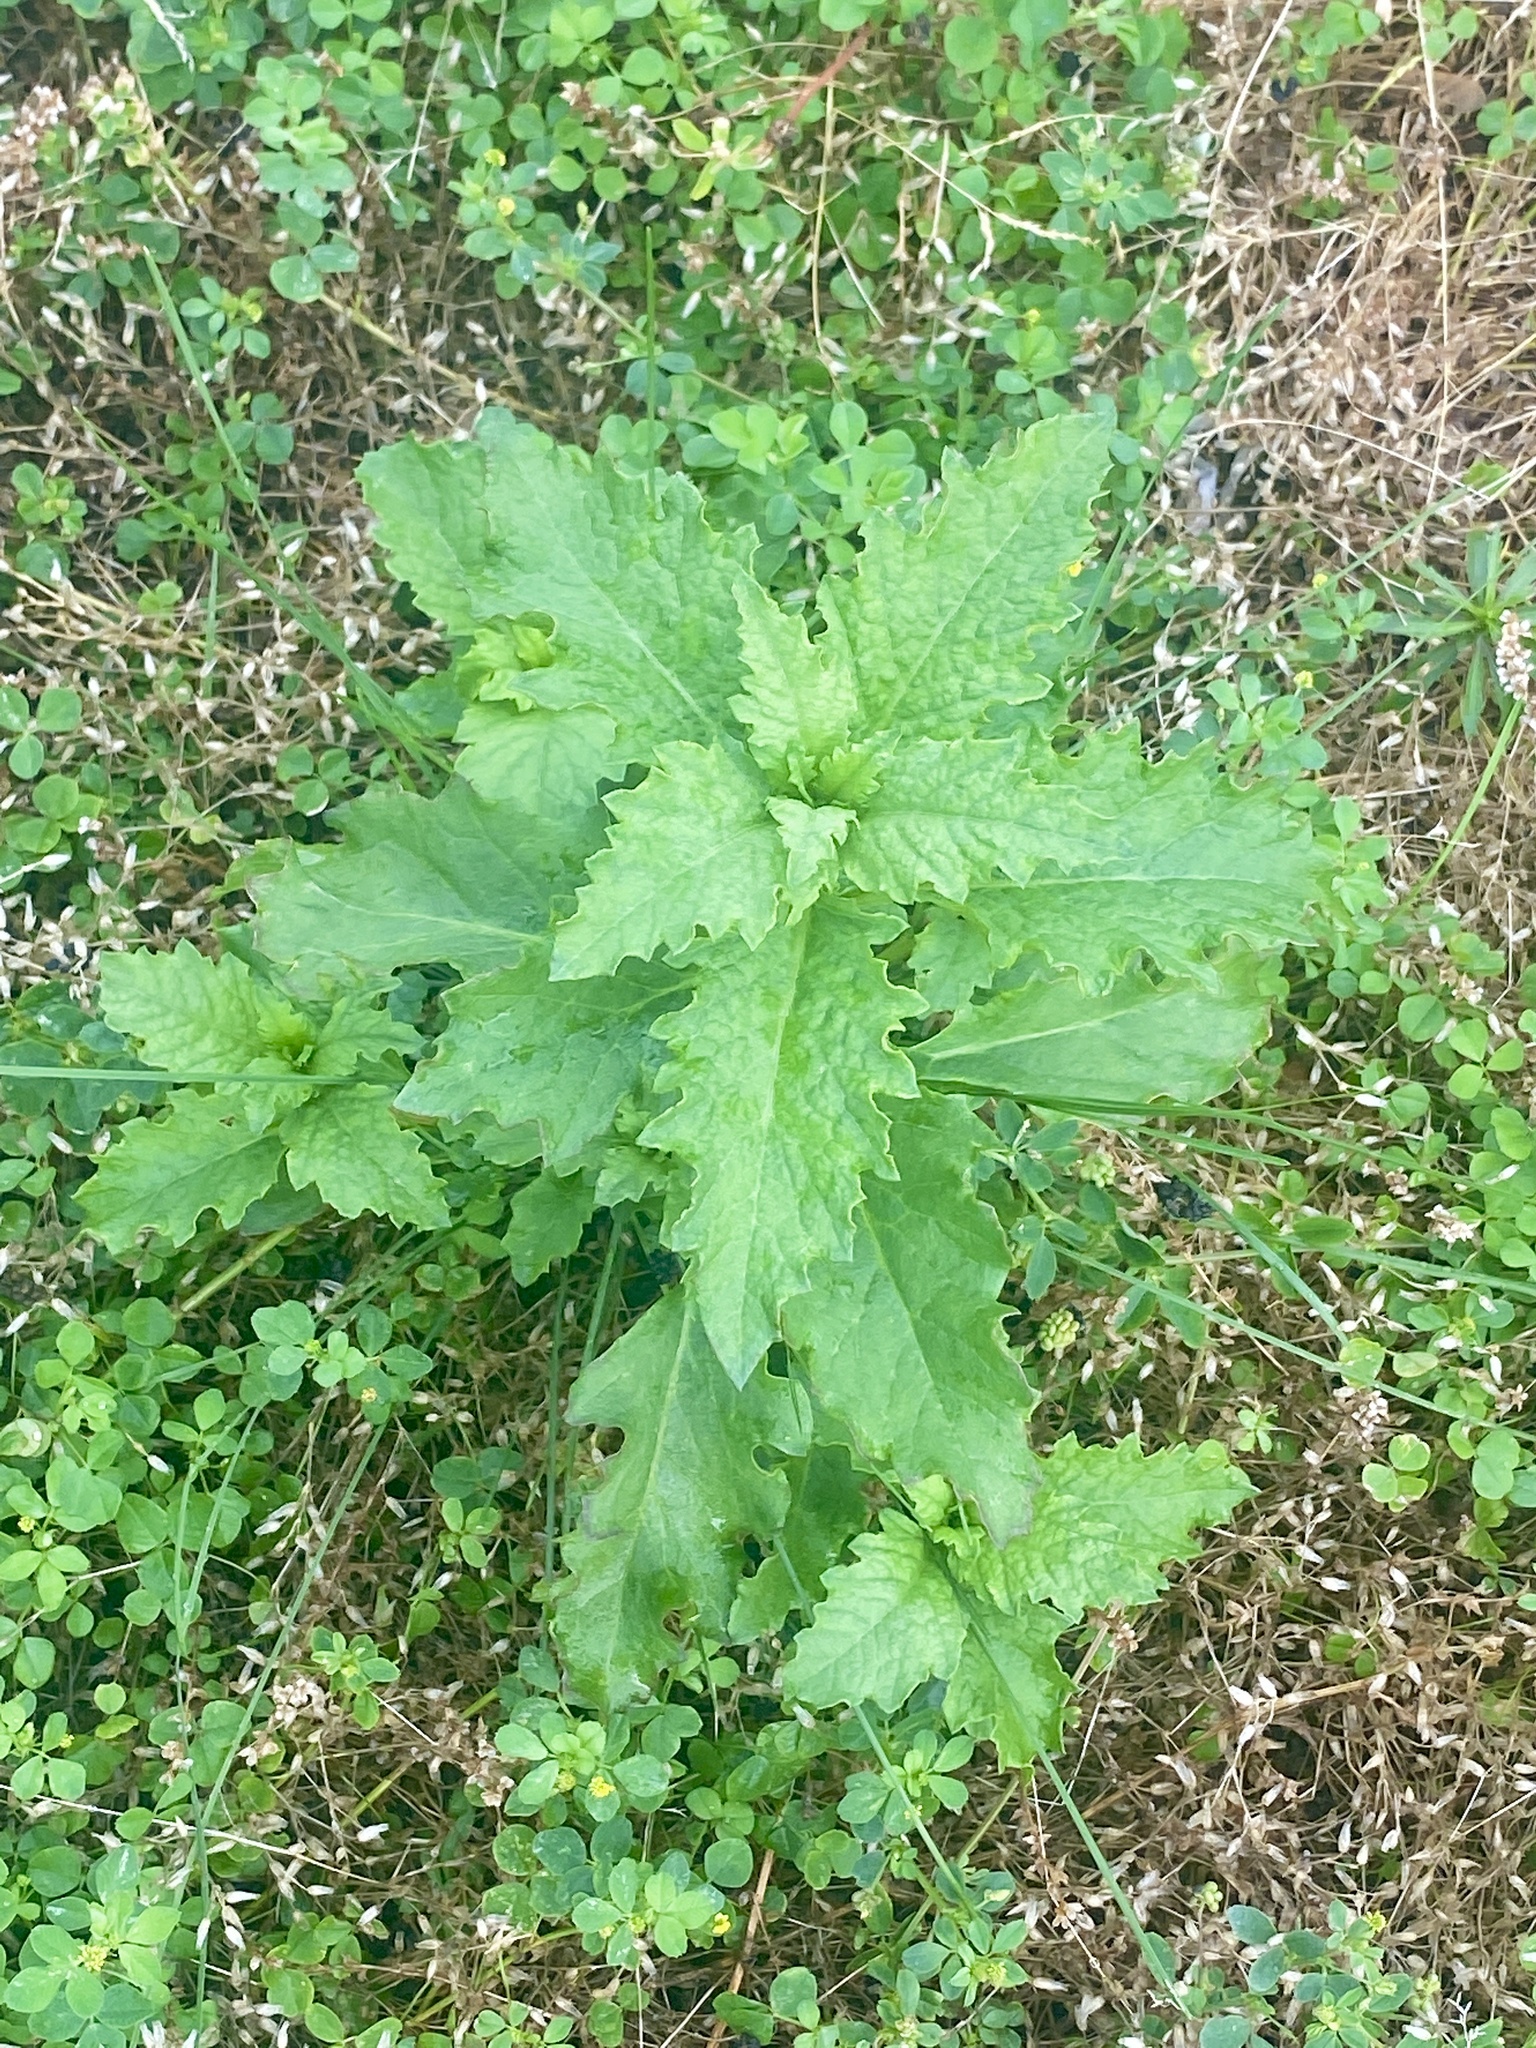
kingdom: Plantae
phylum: Tracheophyta
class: Magnoliopsida
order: Caryophyllales
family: Amaranthaceae
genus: Dysphania
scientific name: Dysphania ambrosioides
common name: Wormseed
